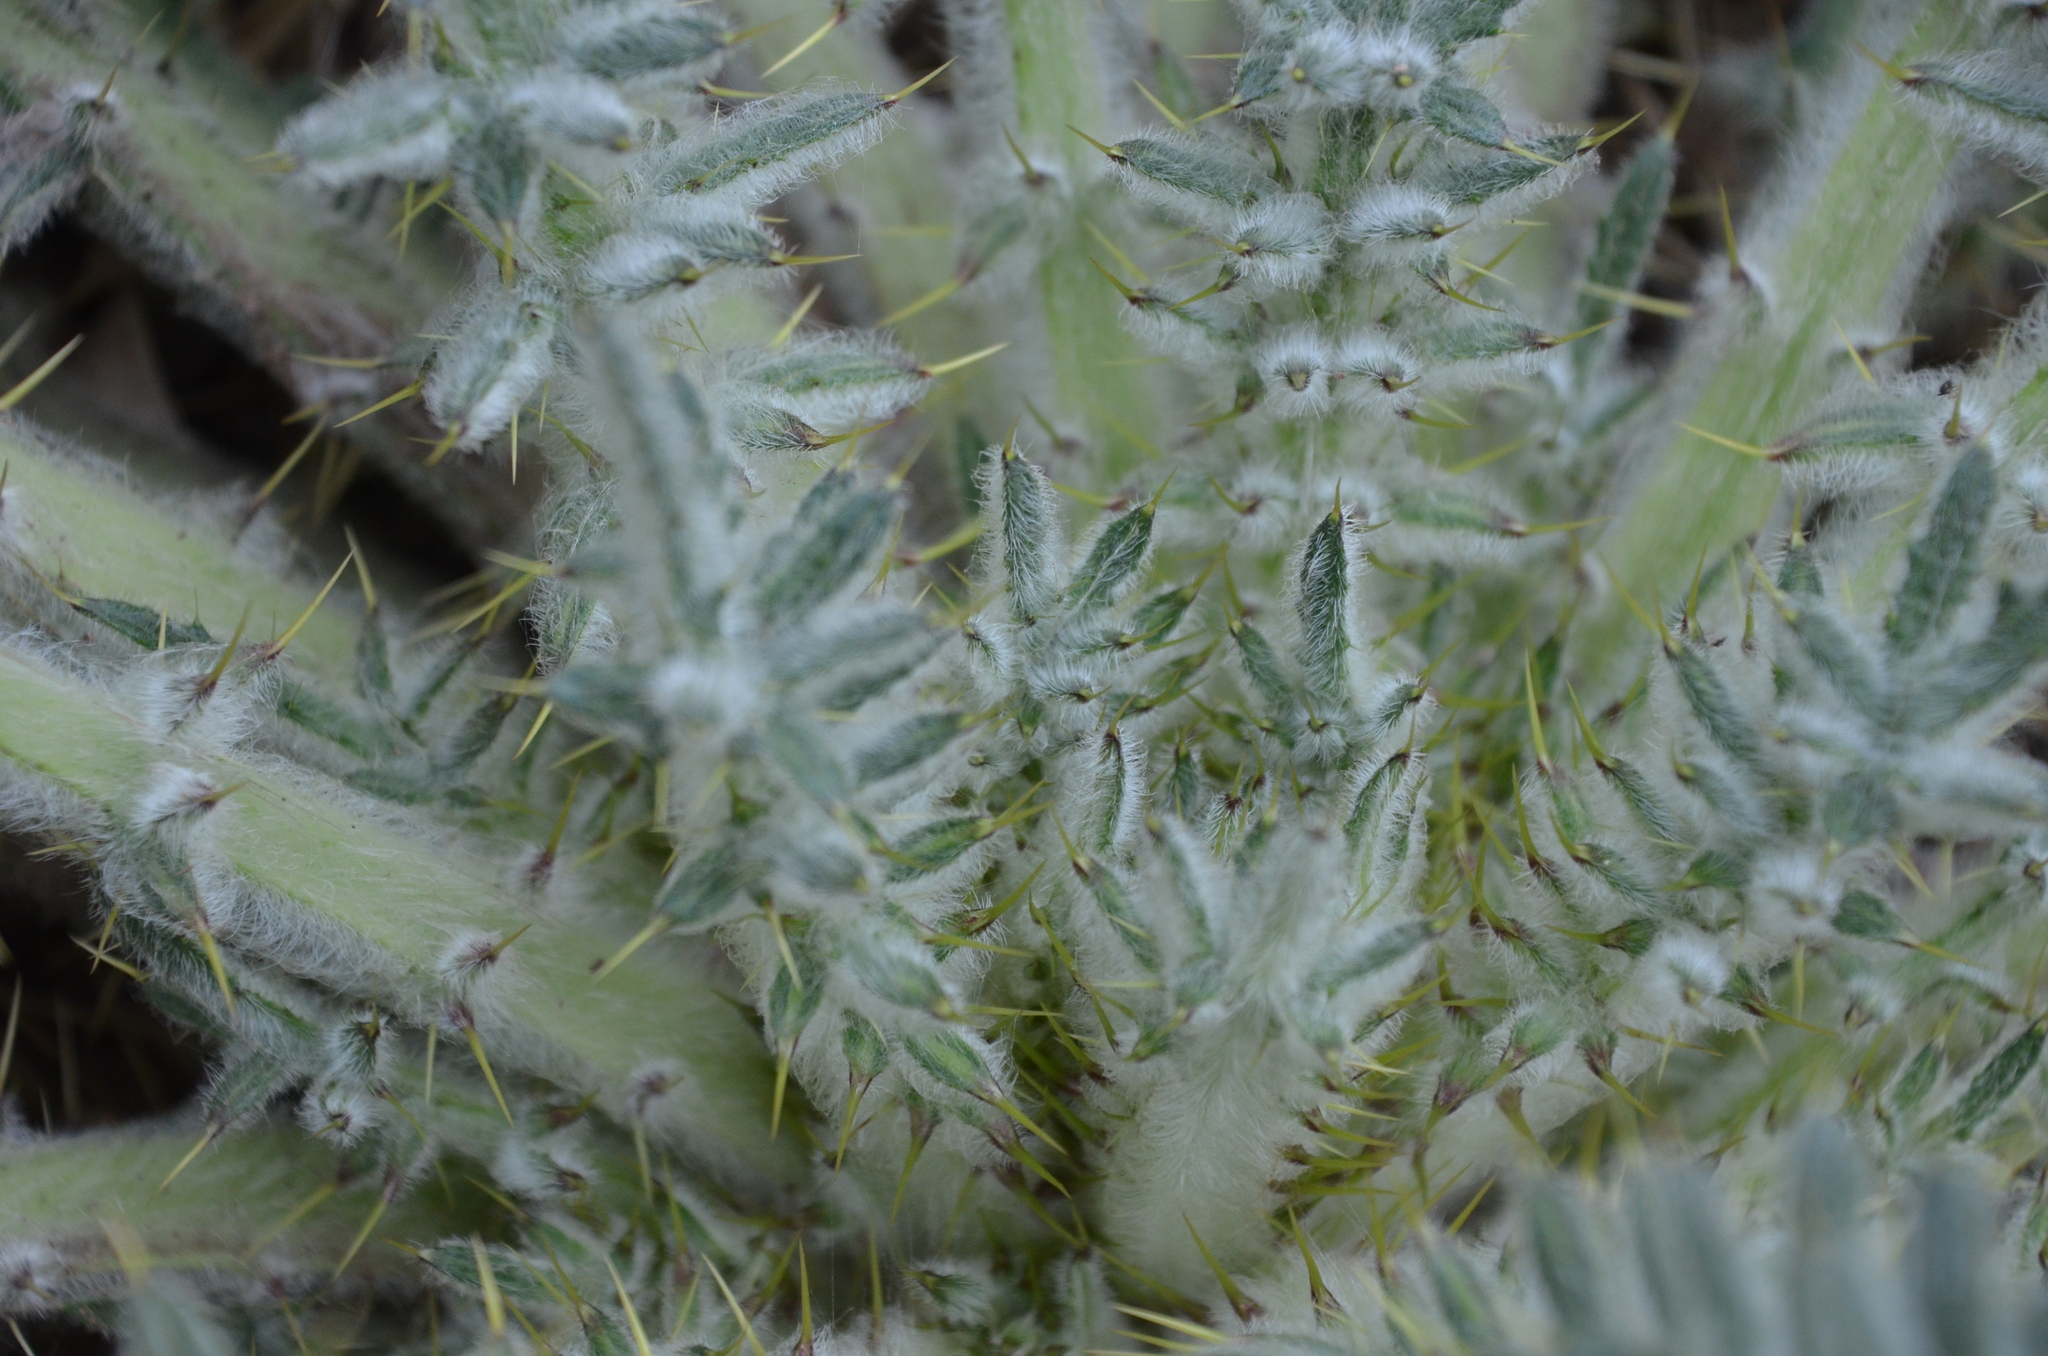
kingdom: Plantae
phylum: Tracheophyta
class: Magnoliopsida
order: Asterales
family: Asteraceae
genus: Cirsium
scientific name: Cirsium vulgare
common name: Bull thistle
